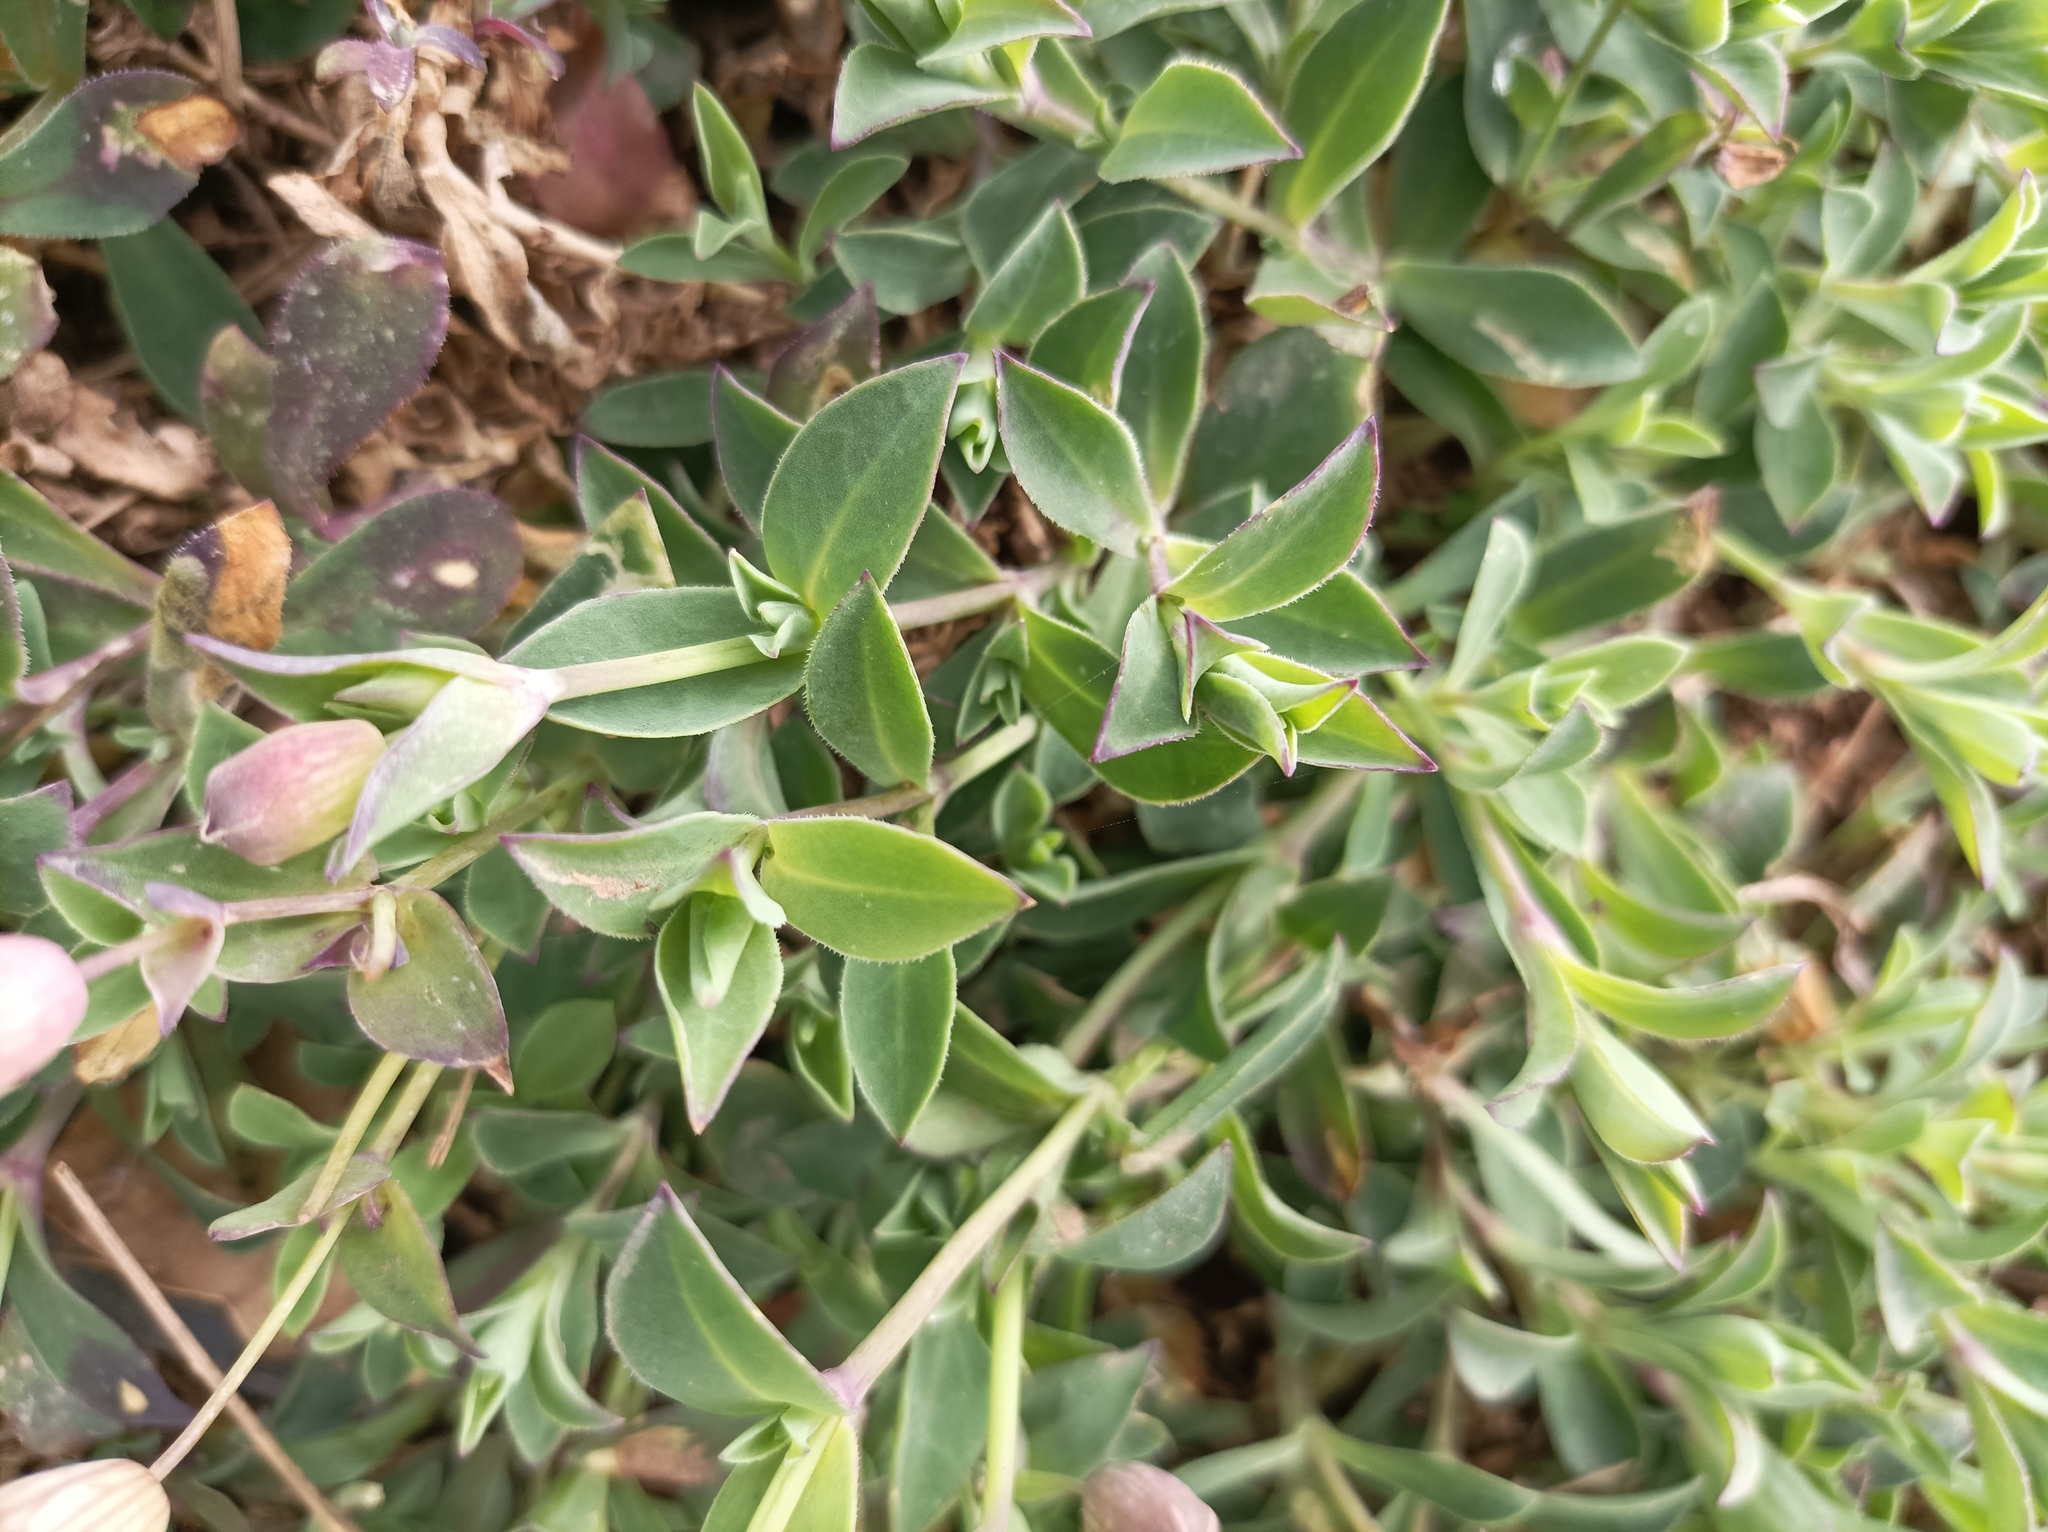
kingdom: Plantae
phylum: Tracheophyta
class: Magnoliopsida
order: Caryophyllales
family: Caryophyllaceae
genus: Silene
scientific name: Silene uniflora
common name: Sea campion
